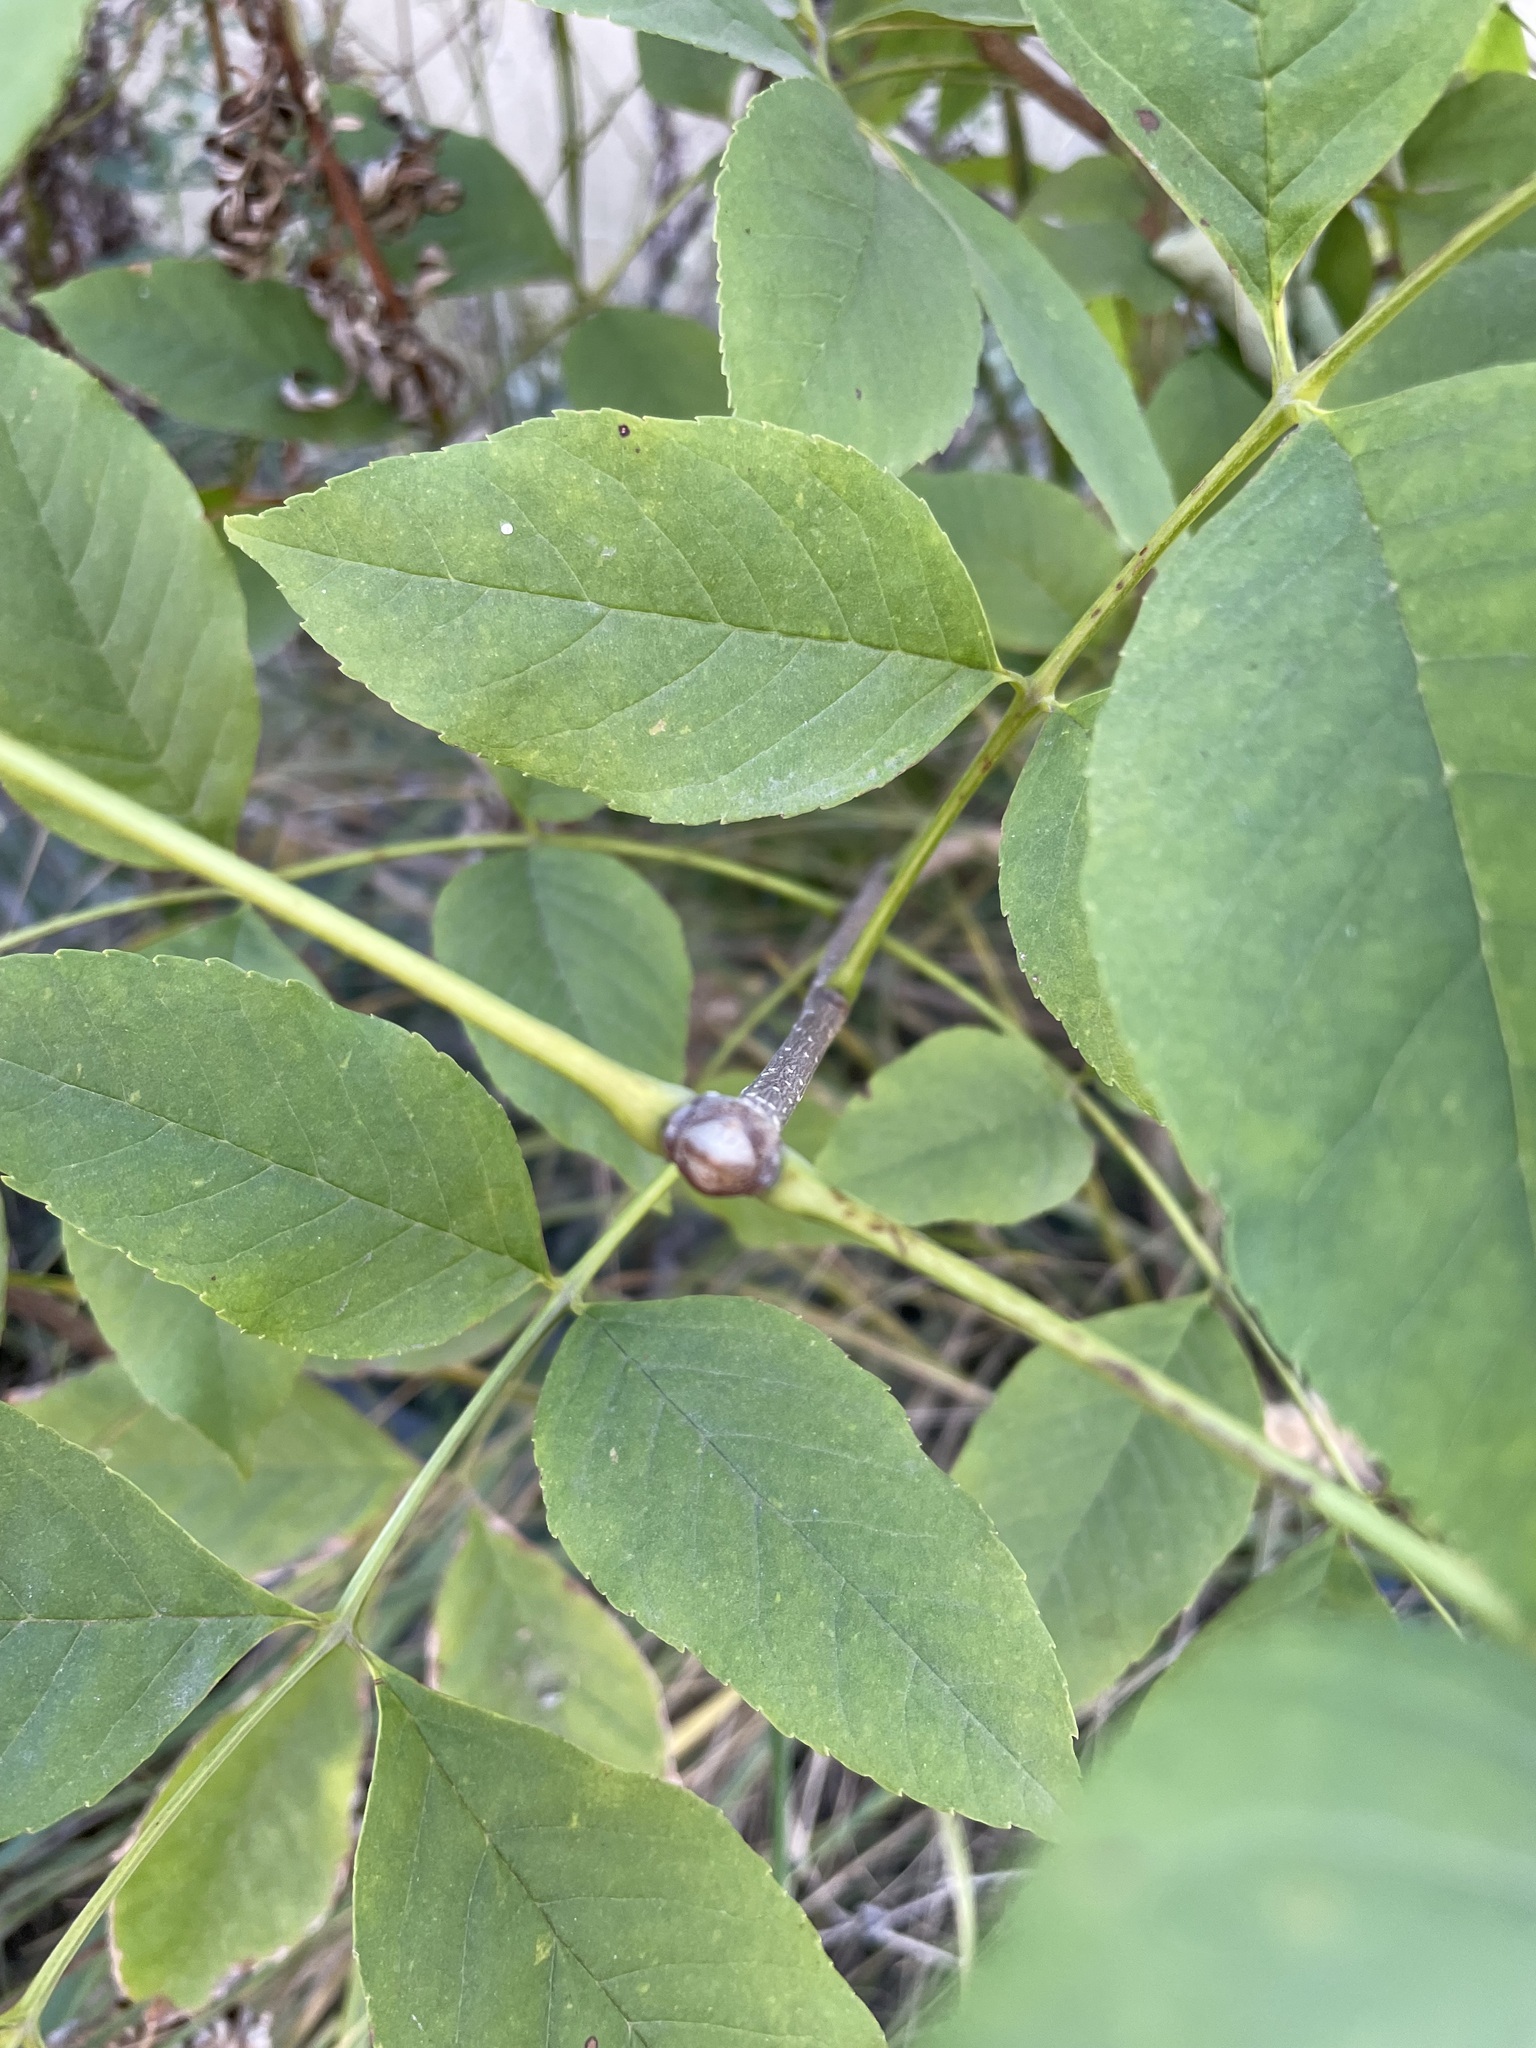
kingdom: Plantae
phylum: Tracheophyta
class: Magnoliopsida
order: Lamiales
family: Oleaceae
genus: Fraxinus
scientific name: Fraxinus pennsylvanica
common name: Green ash
